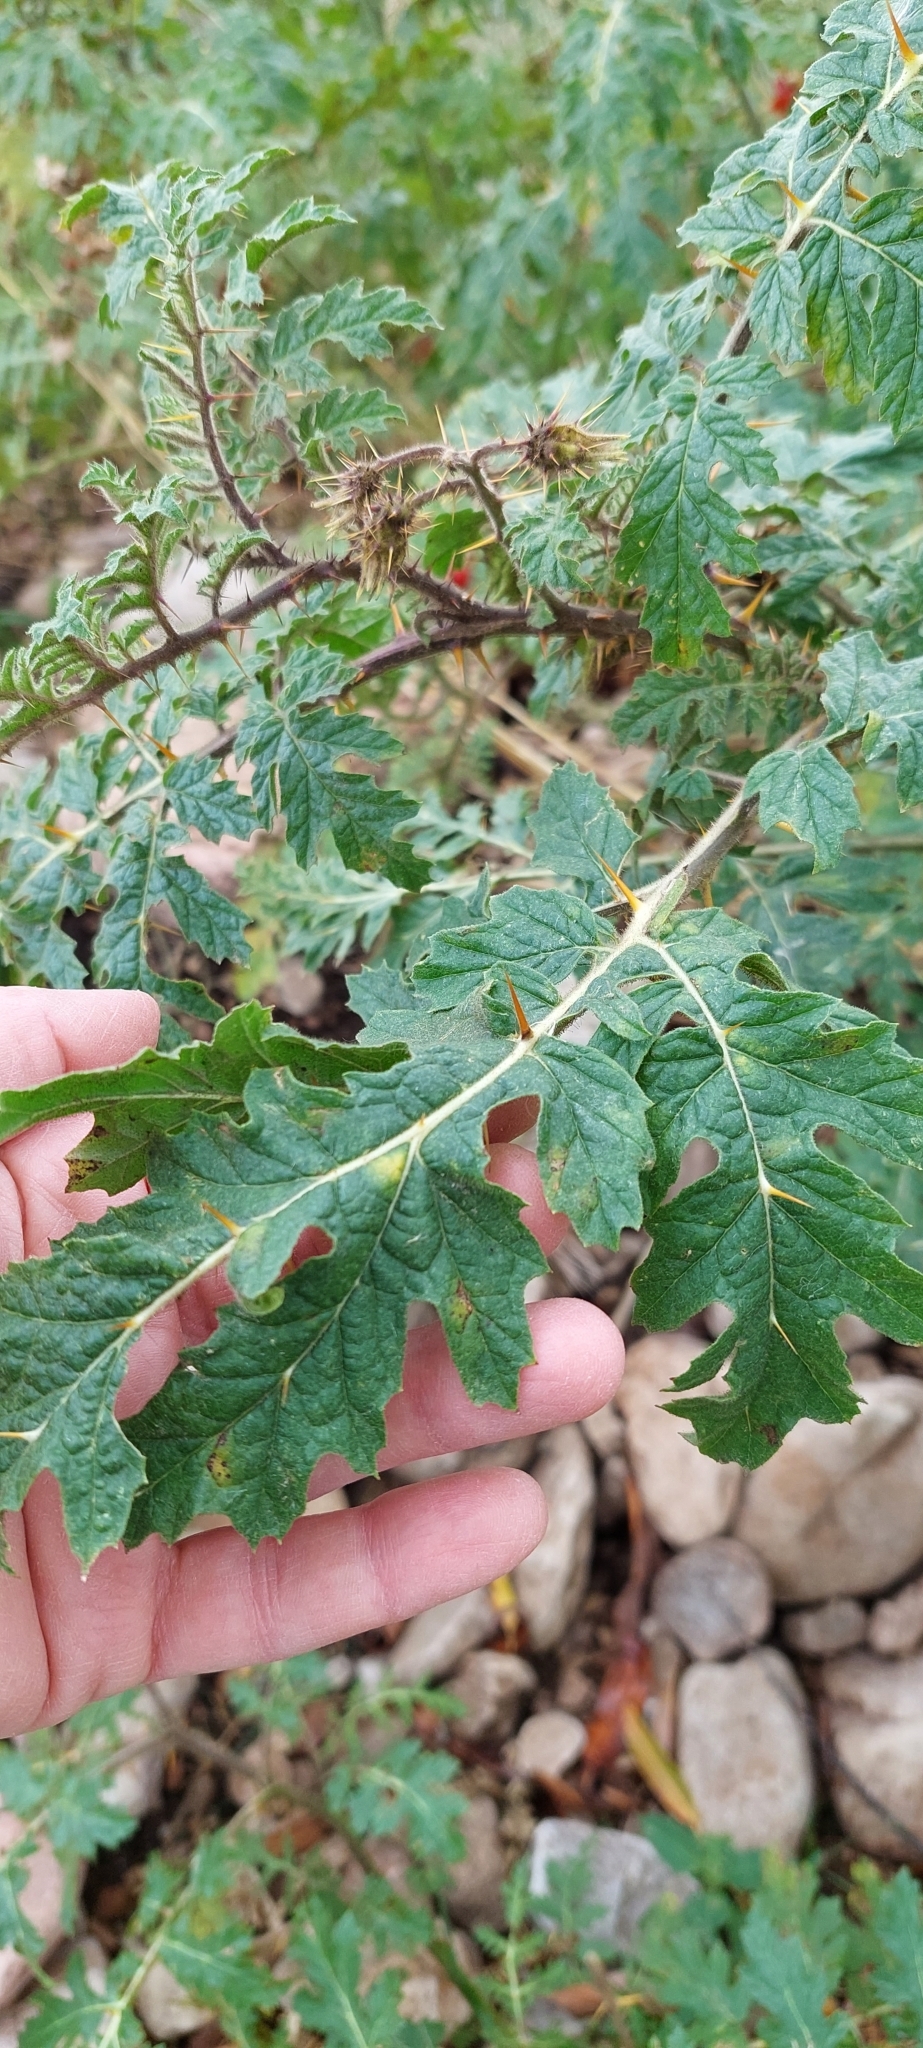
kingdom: Plantae
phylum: Tracheophyta
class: Magnoliopsida
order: Solanales
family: Solanaceae
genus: Solanum
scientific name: Solanum sisymbriifolium
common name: Red buffalo-bur
